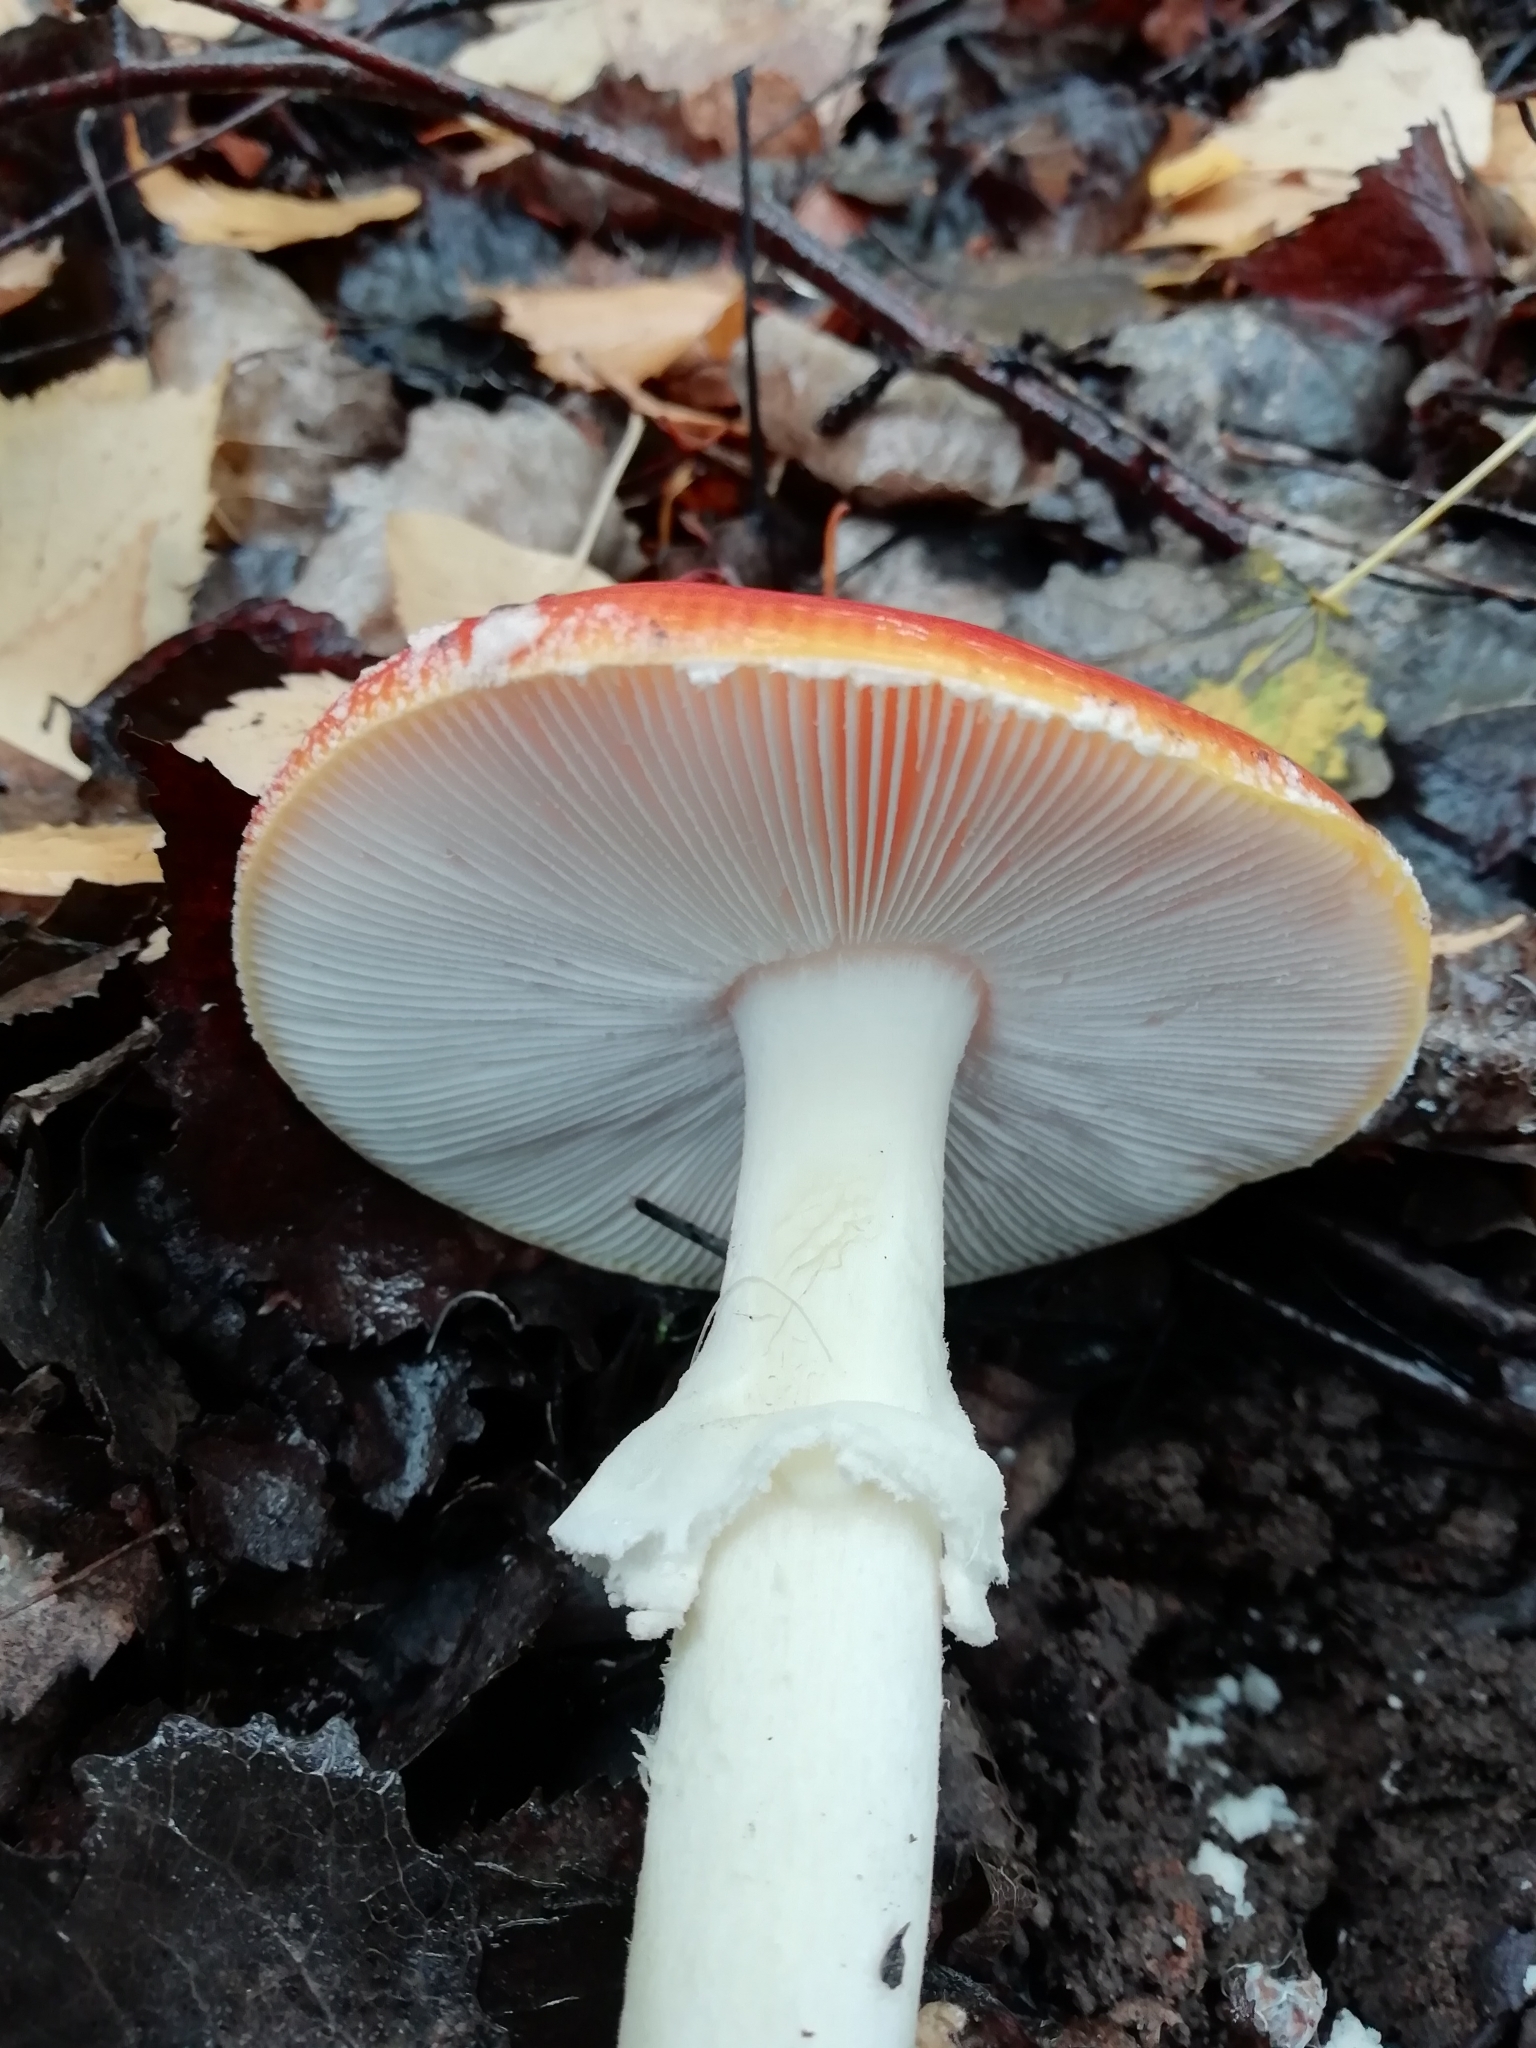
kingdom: Fungi
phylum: Basidiomycota
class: Agaricomycetes
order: Agaricales
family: Amanitaceae
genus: Amanita
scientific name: Amanita muscaria
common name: Fly agaric
